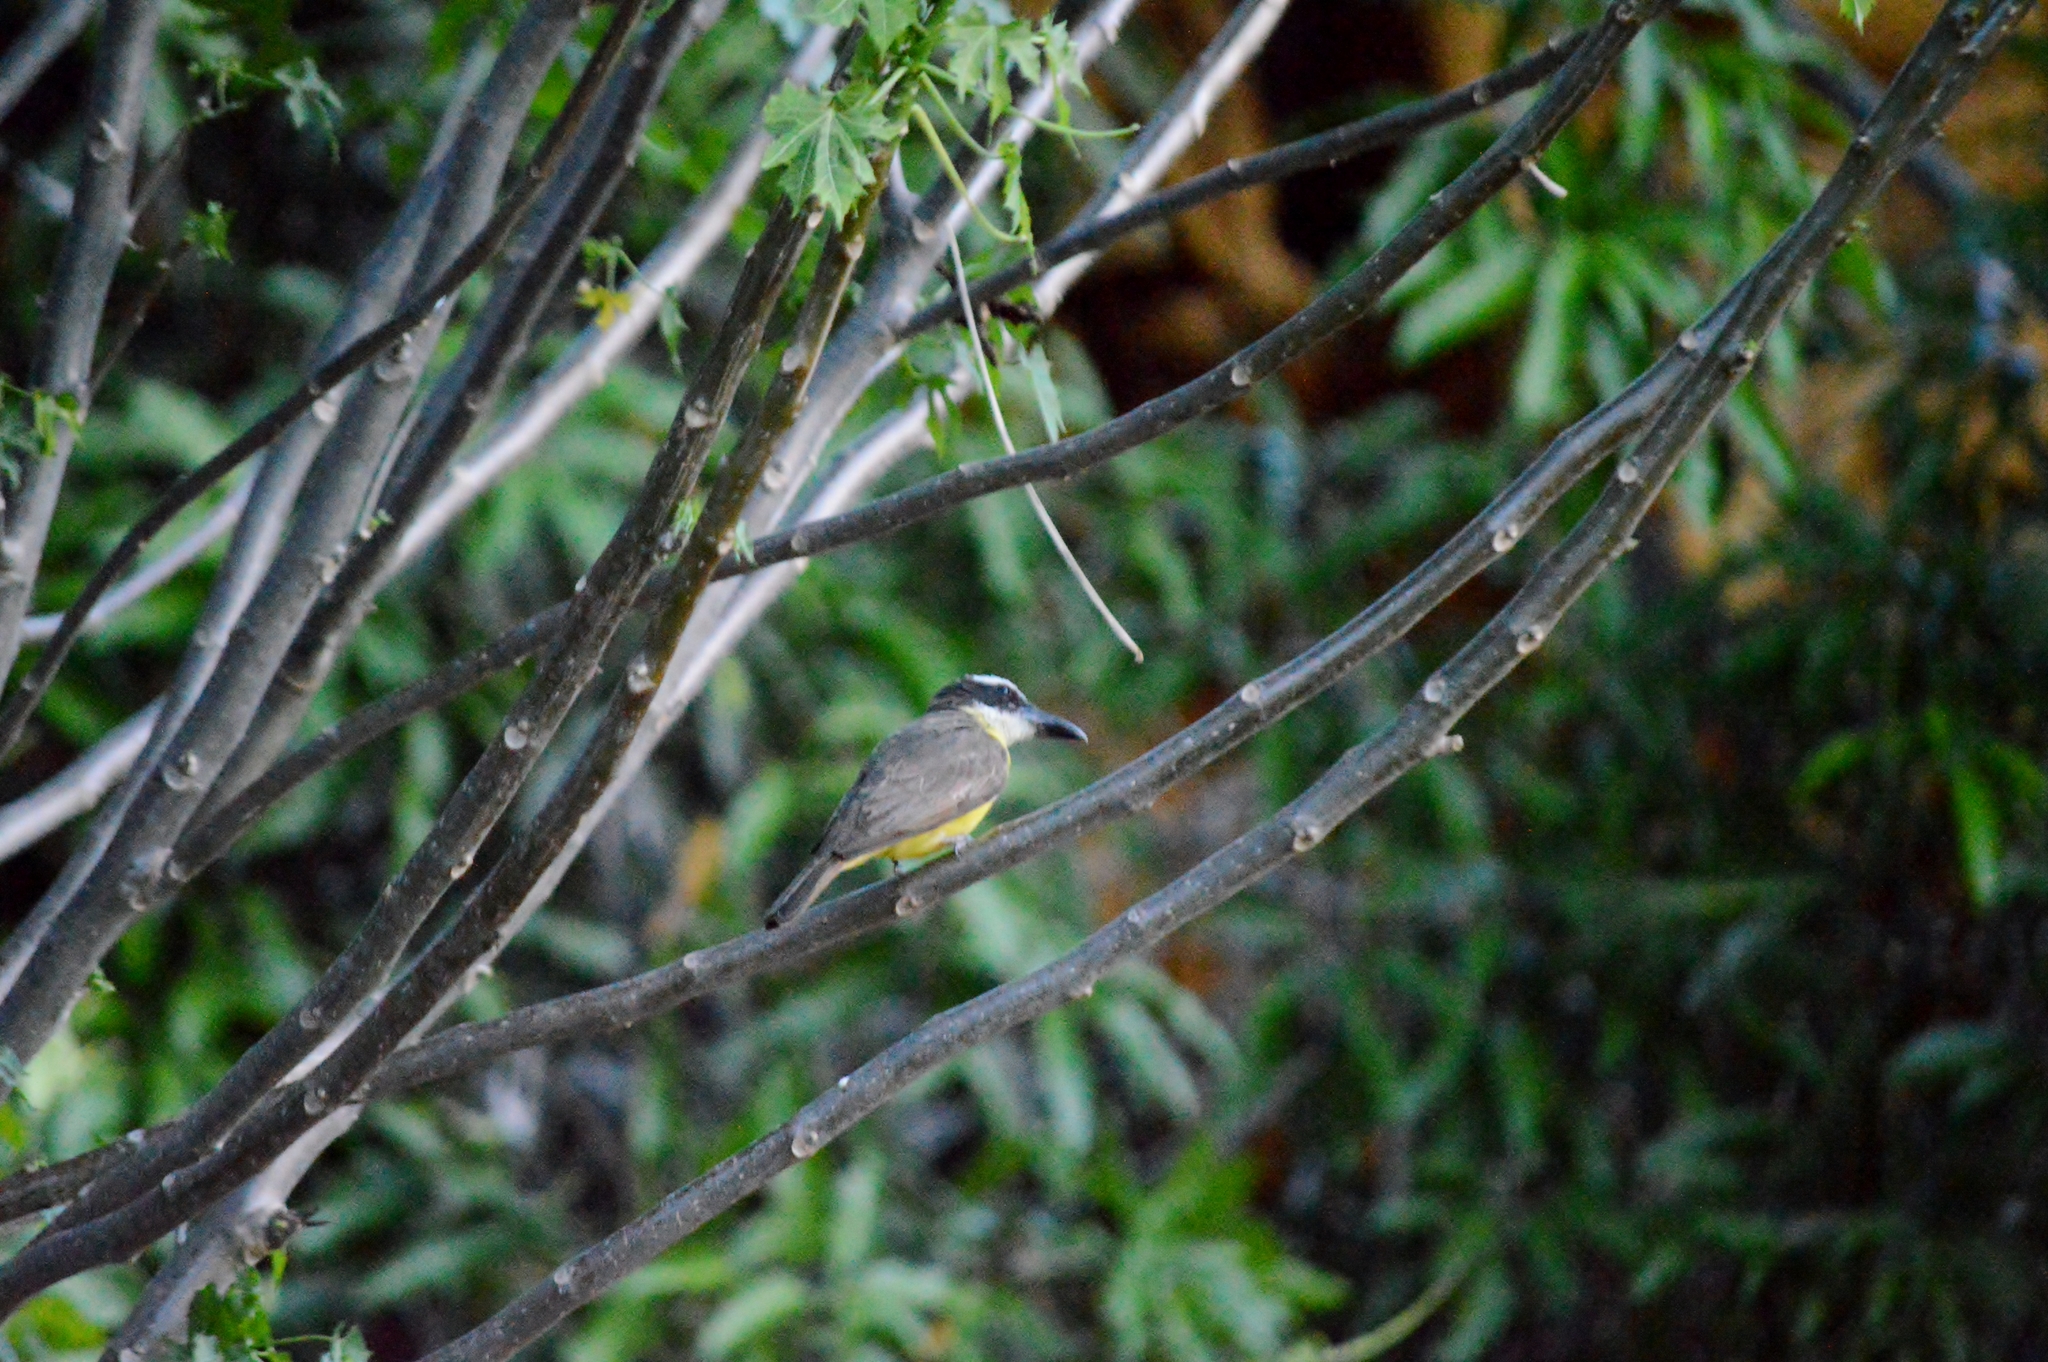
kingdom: Animalia
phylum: Chordata
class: Aves
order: Passeriformes
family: Tyrannidae
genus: Megarynchus
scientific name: Megarynchus pitangua
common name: Boat-billed flycatcher
